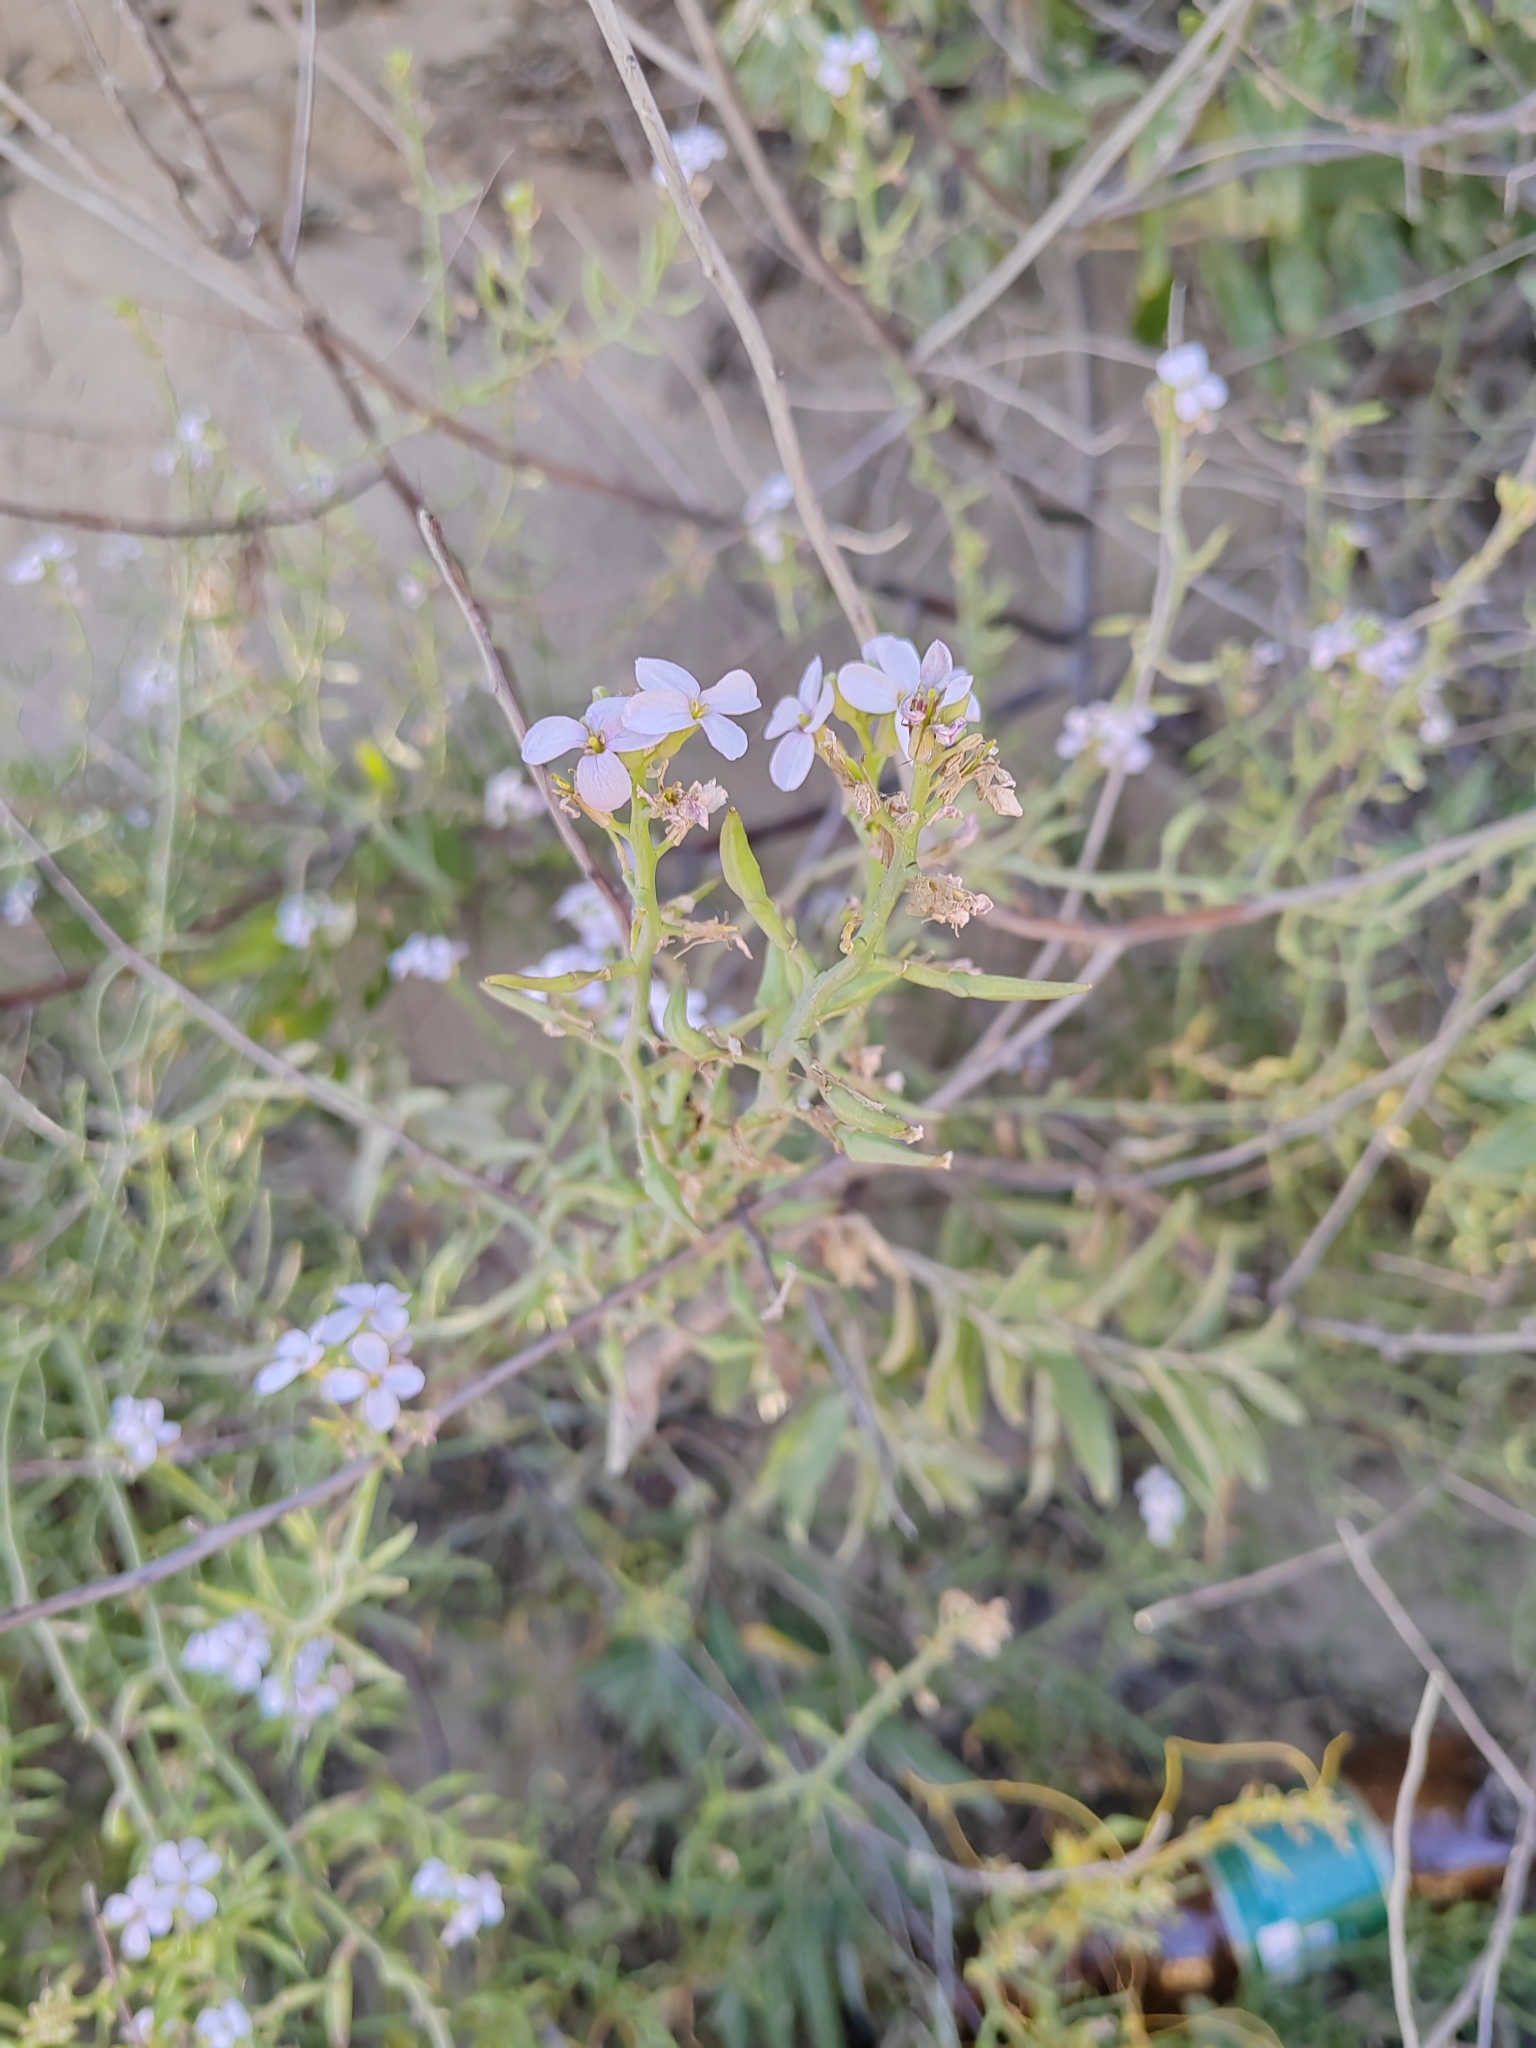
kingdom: Plantae
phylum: Tracheophyta
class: Magnoliopsida
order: Brassicales
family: Brassicaceae
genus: Cakile
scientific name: Cakile maritima
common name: Sea rocket
